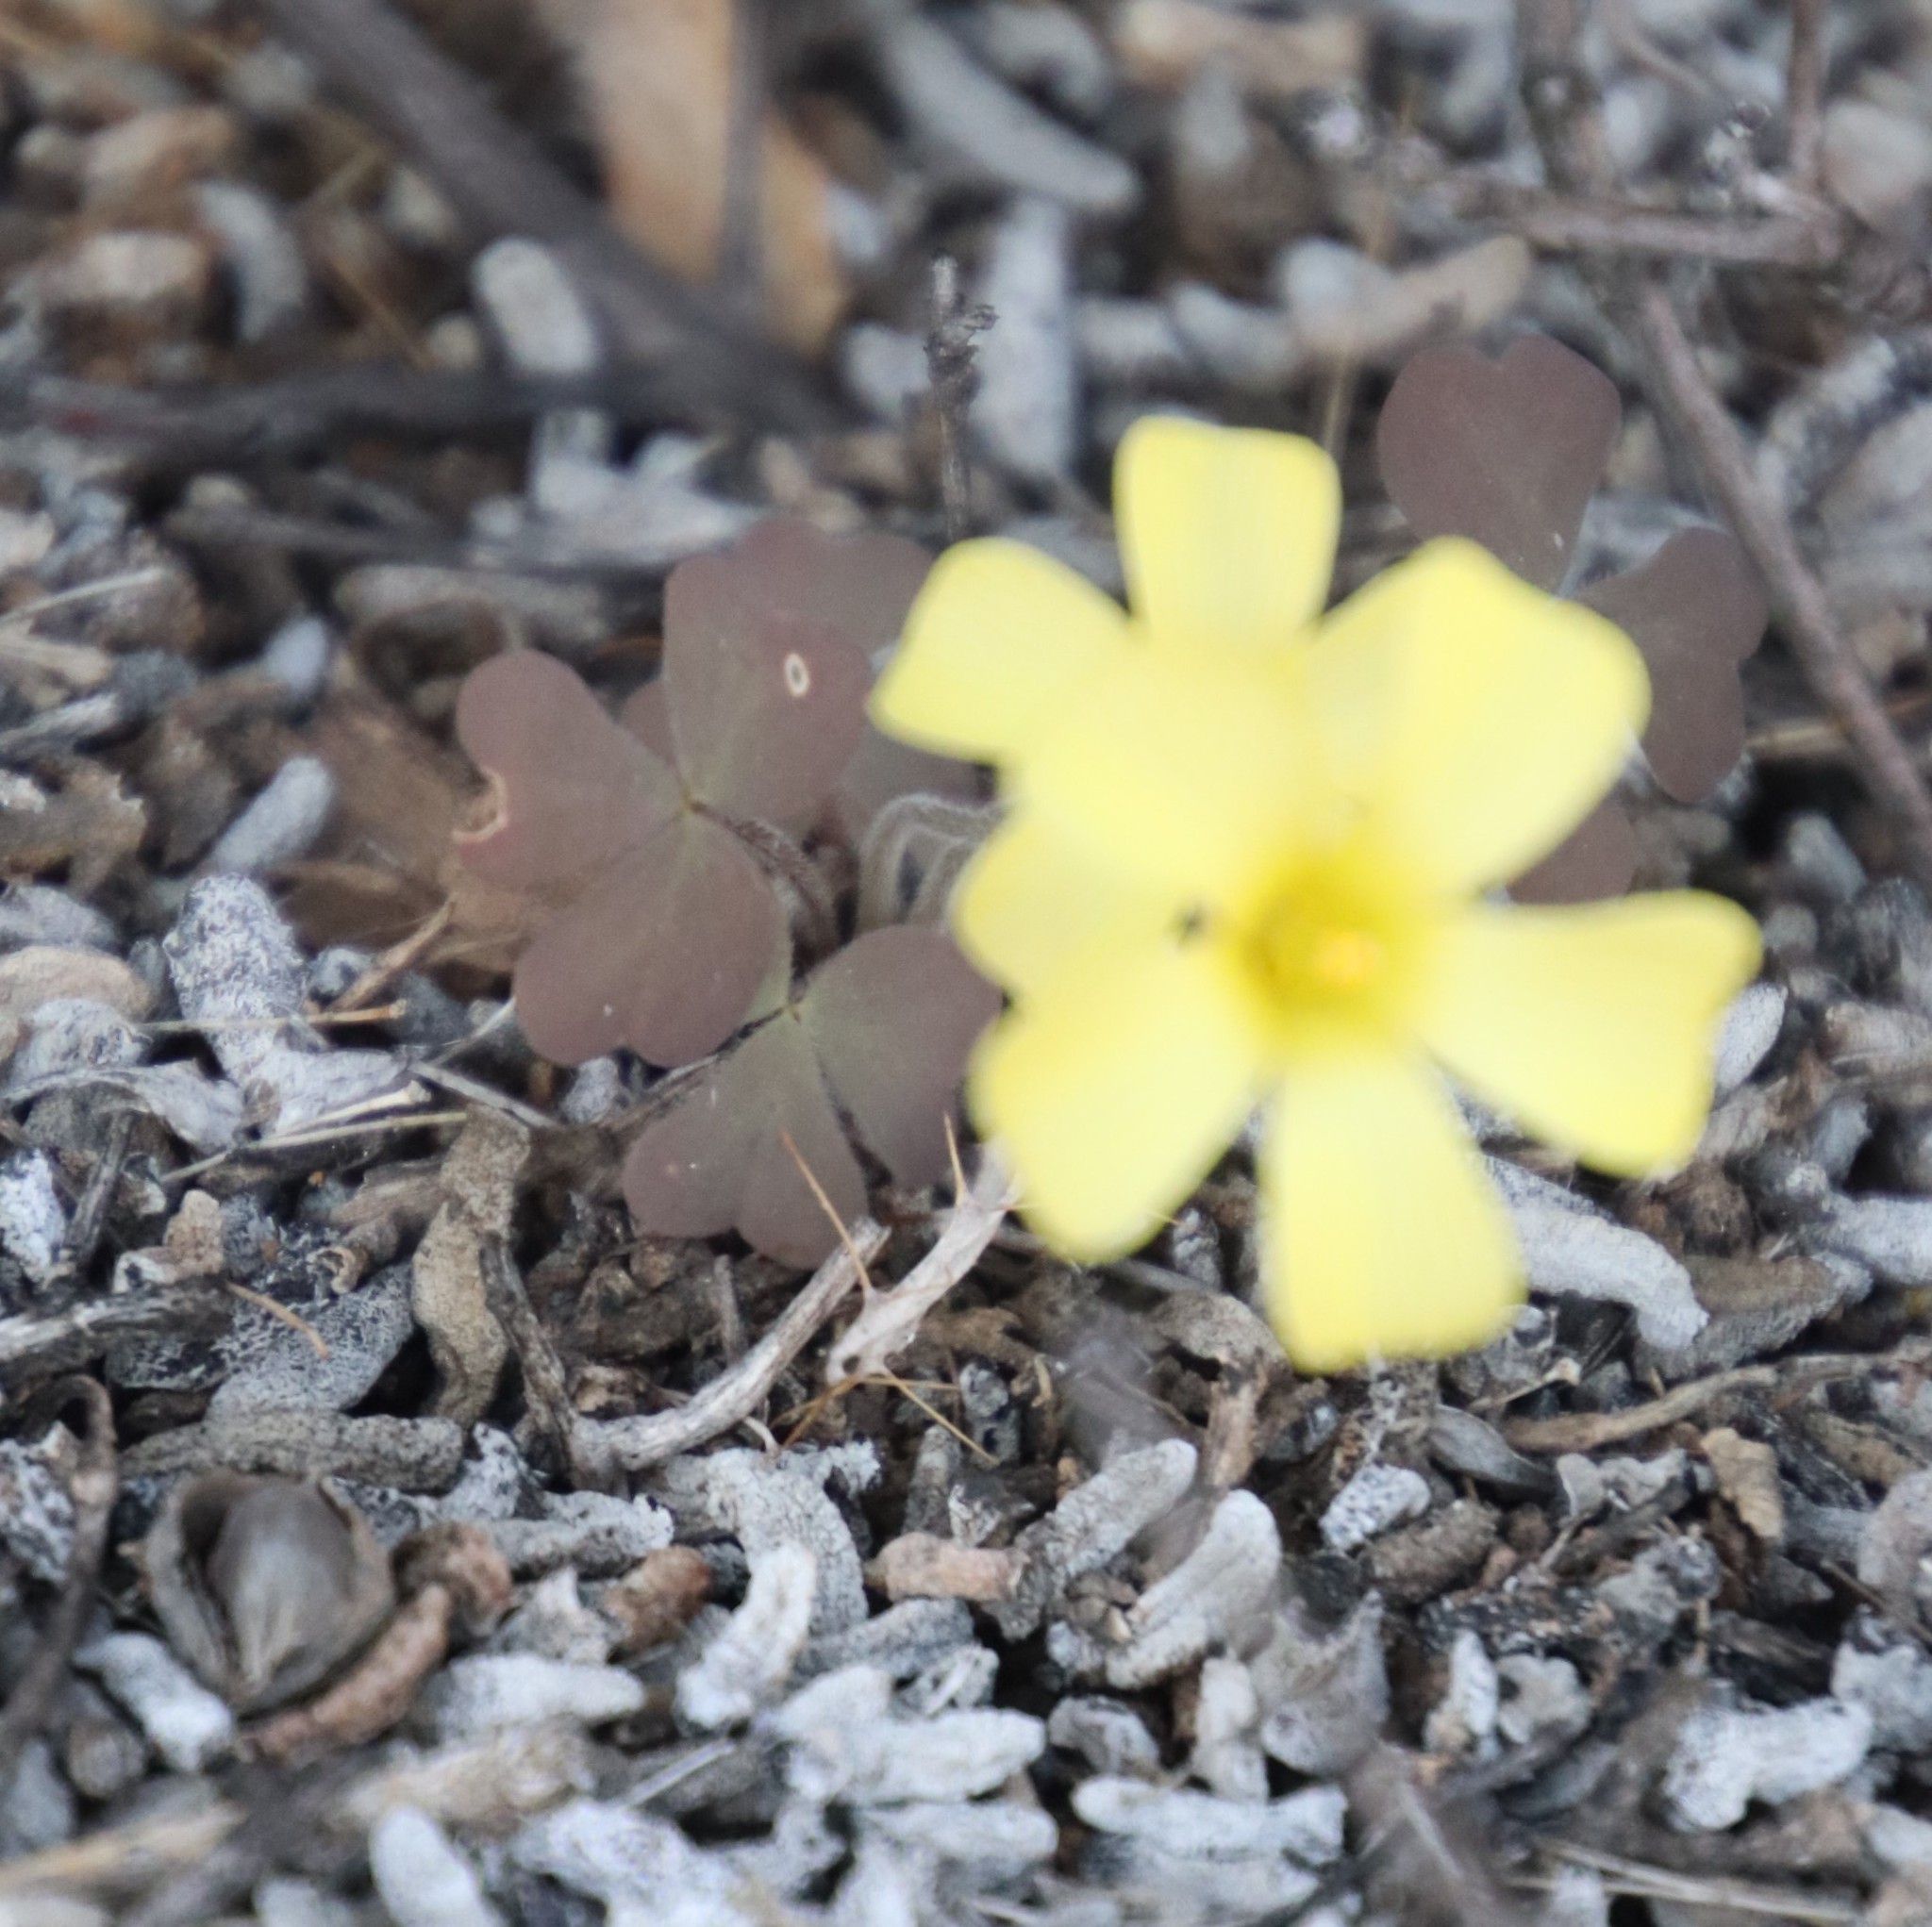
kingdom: Plantae
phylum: Tracheophyta
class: Magnoliopsida
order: Oxalidales
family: Oxalidaceae
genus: Oxalis
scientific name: Oxalis obtusa
